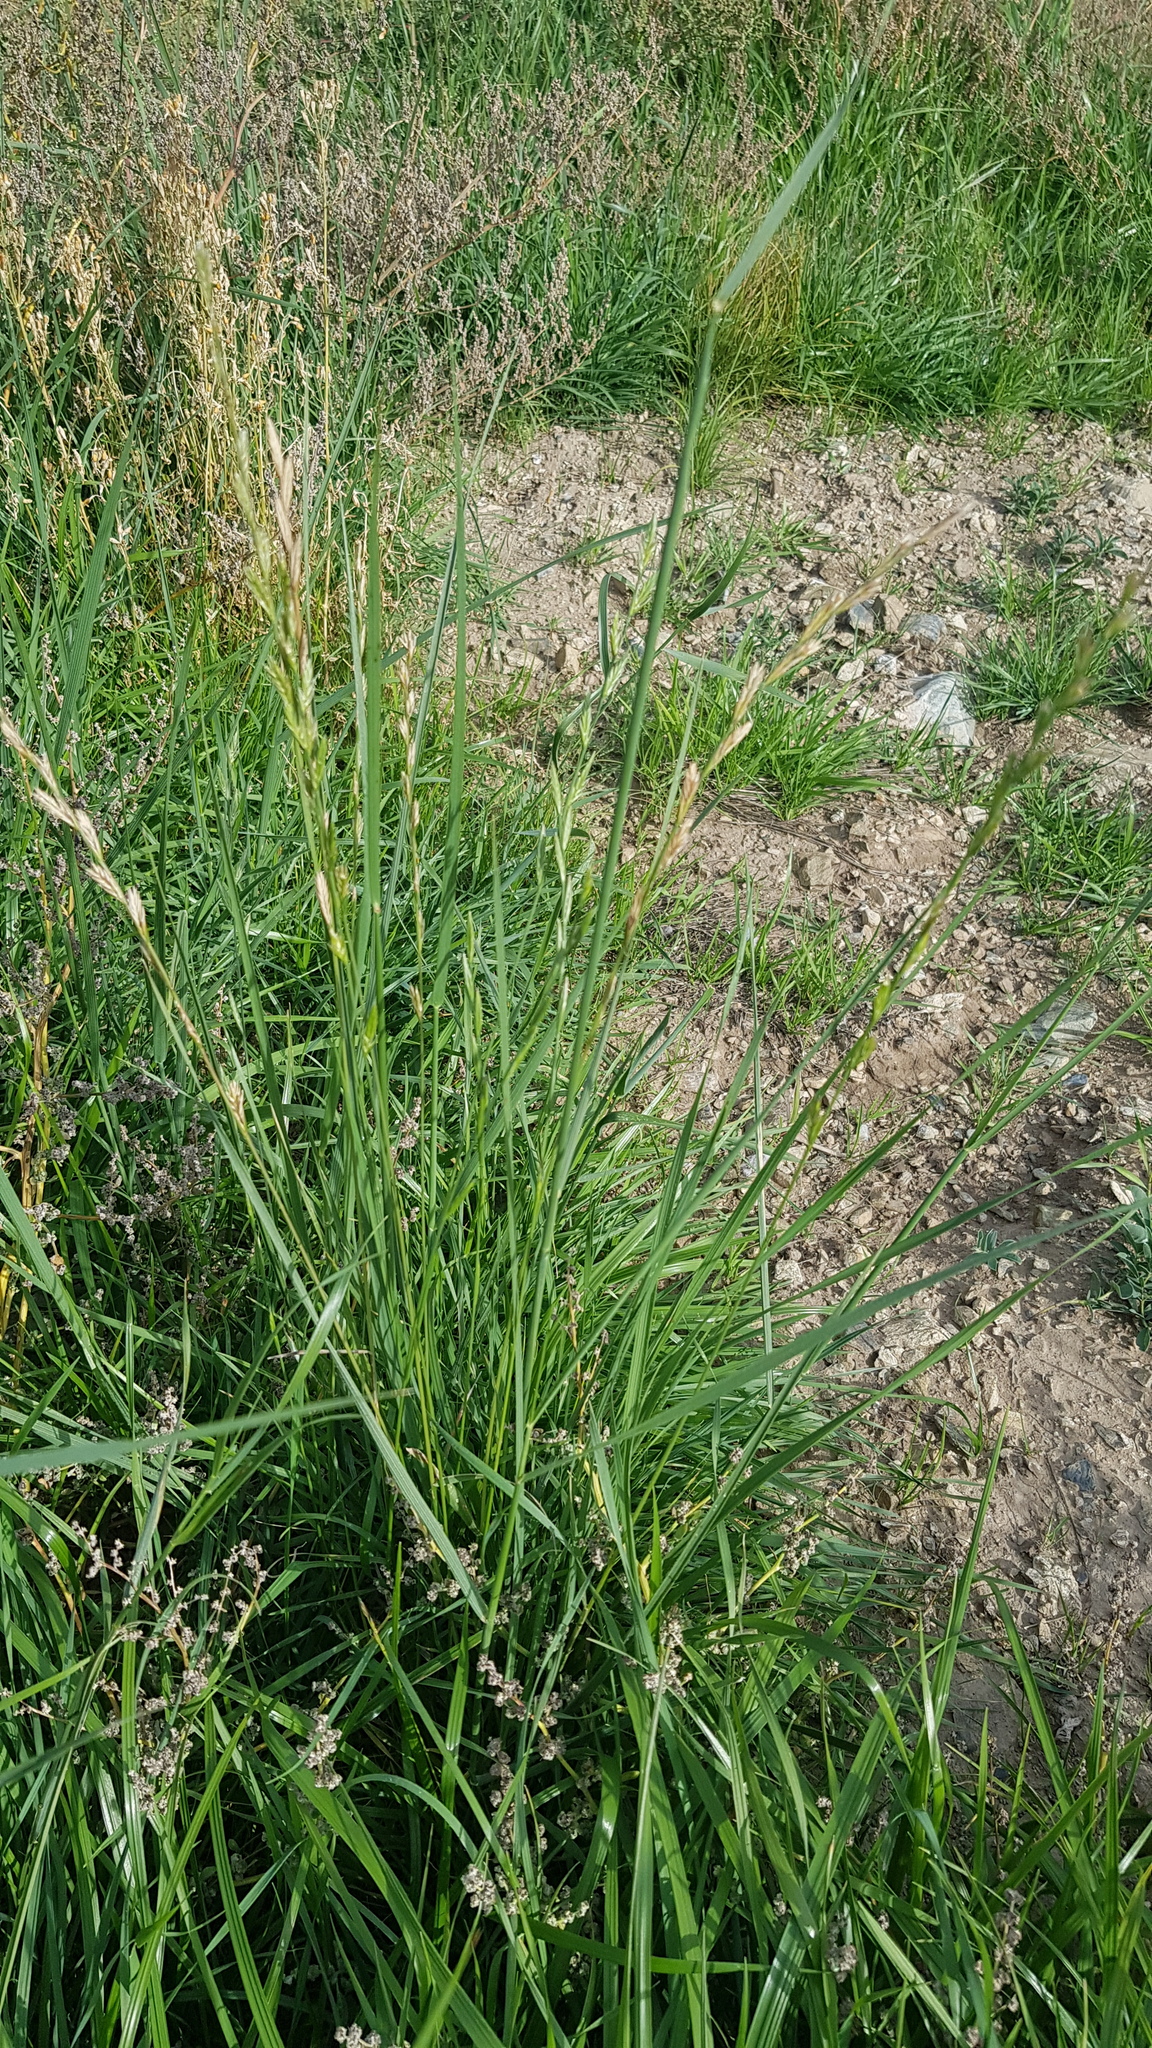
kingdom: Plantae
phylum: Tracheophyta
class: Liliopsida
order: Poales
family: Poaceae
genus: Elymus
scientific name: Elymus repens
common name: Quackgrass
